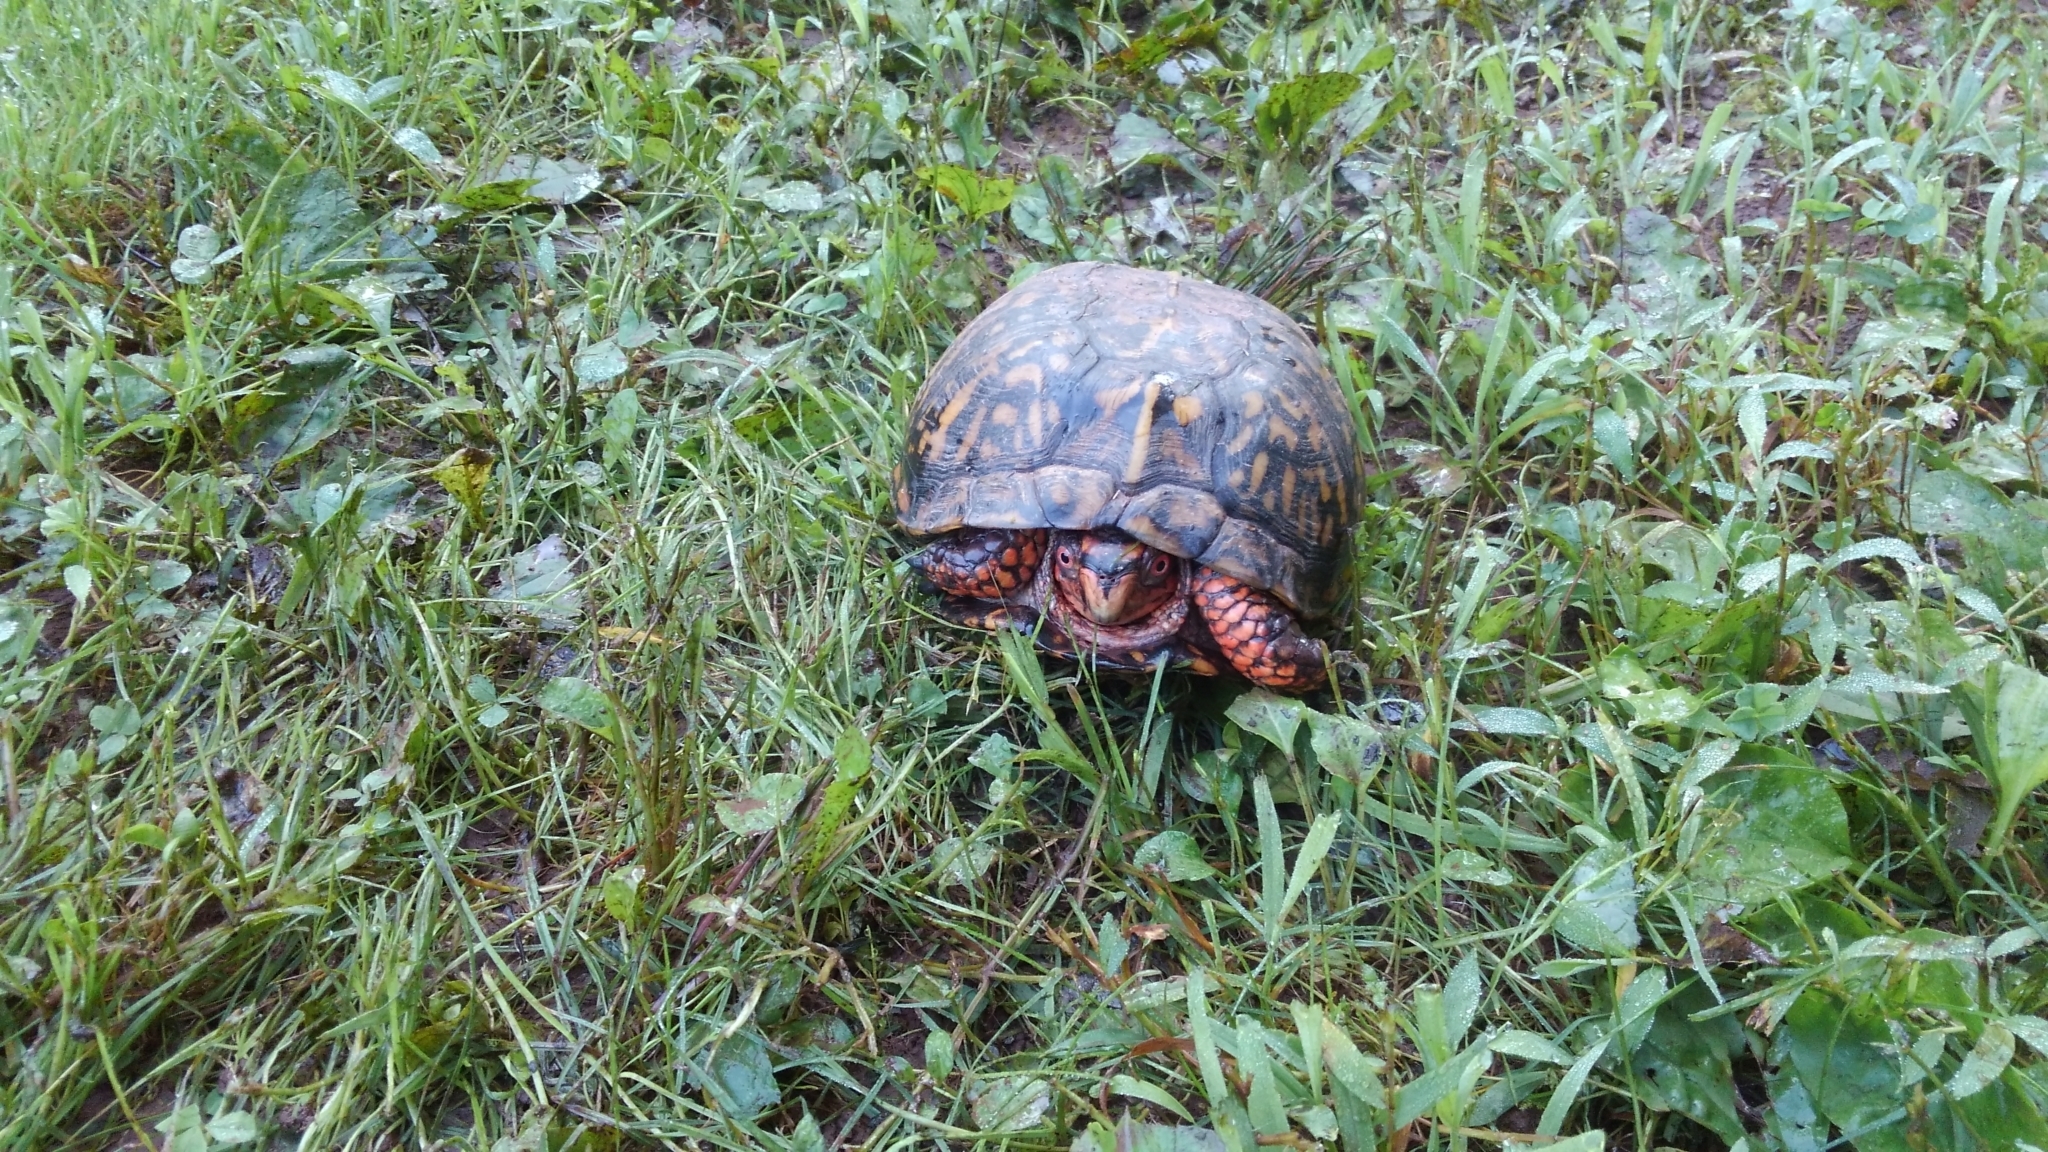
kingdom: Animalia
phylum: Chordata
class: Testudines
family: Emydidae
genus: Terrapene
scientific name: Terrapene carolina
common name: Common box turtle
